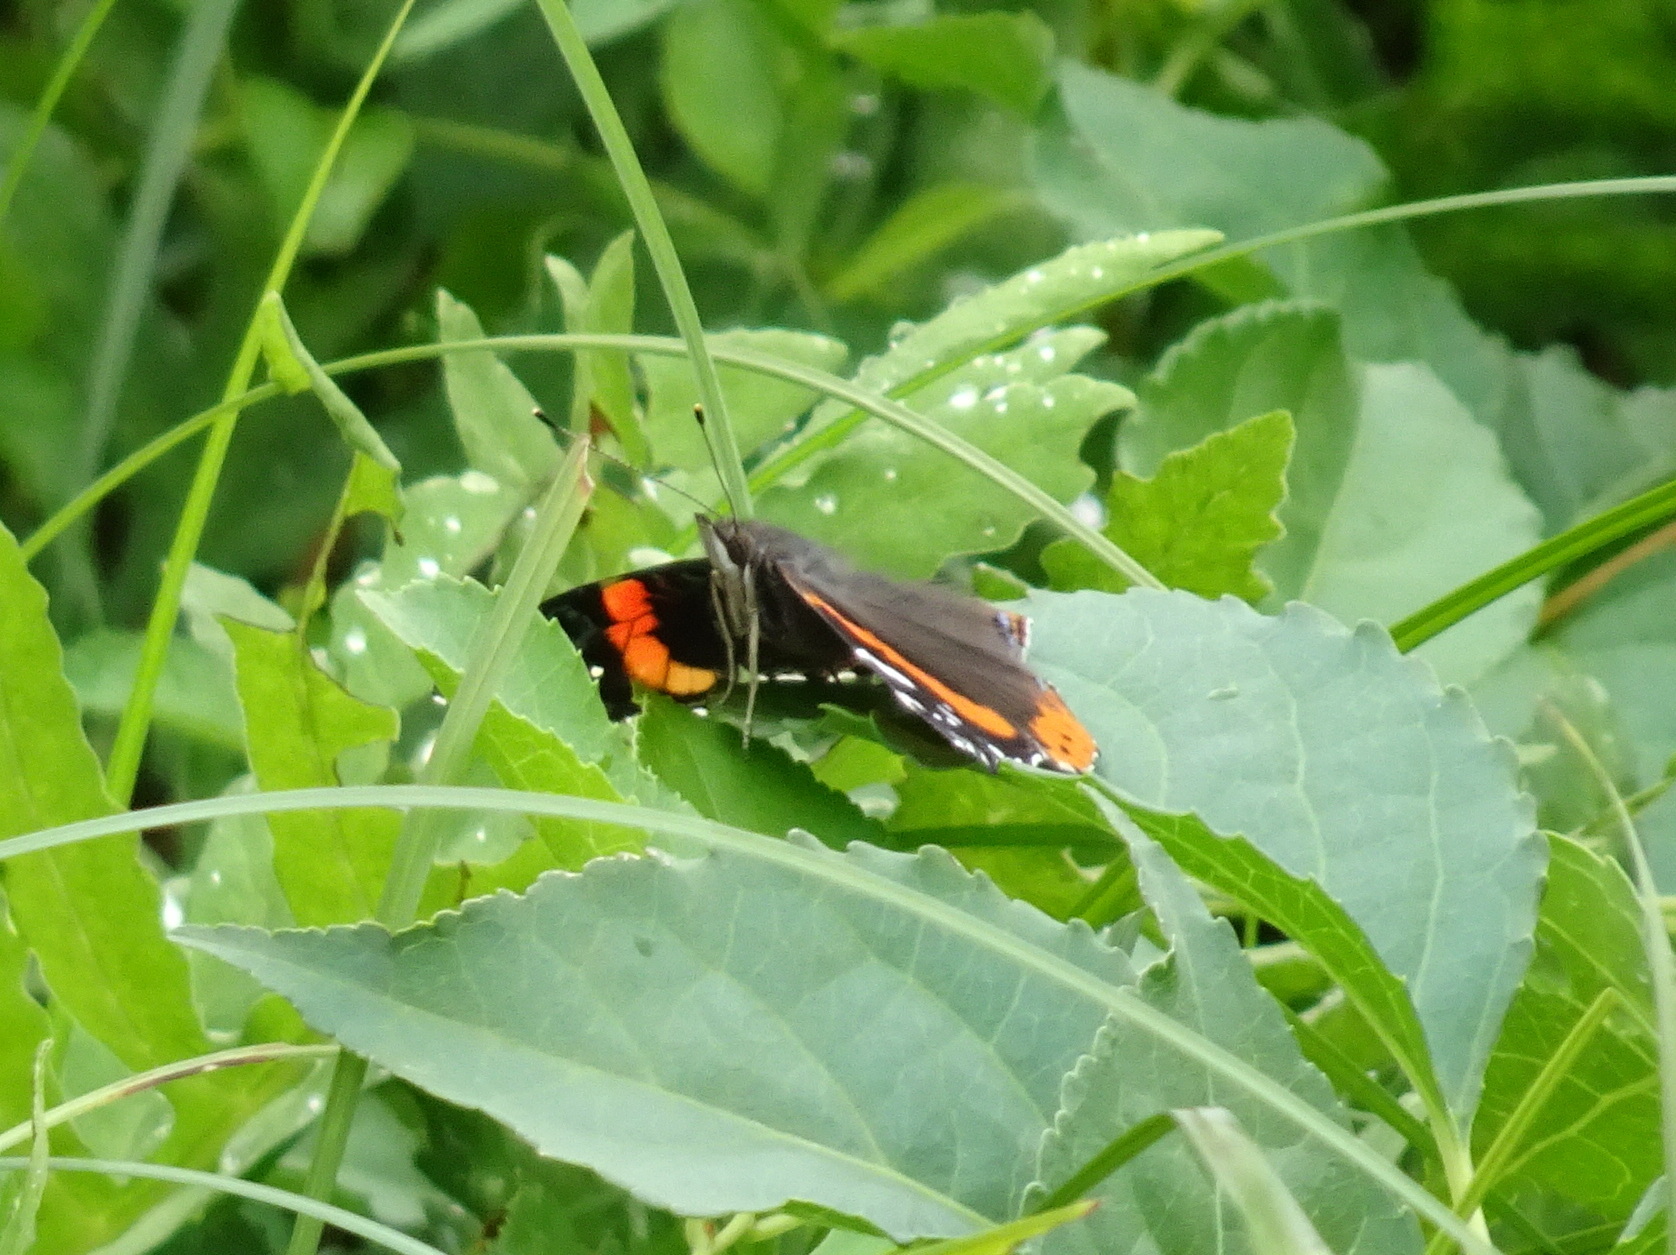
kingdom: Animalia
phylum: Arthropoda
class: Insecta
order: Lepidoptera
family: Nymphalidae
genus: Vanessa
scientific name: Vanessa atalanta
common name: Red admiral
